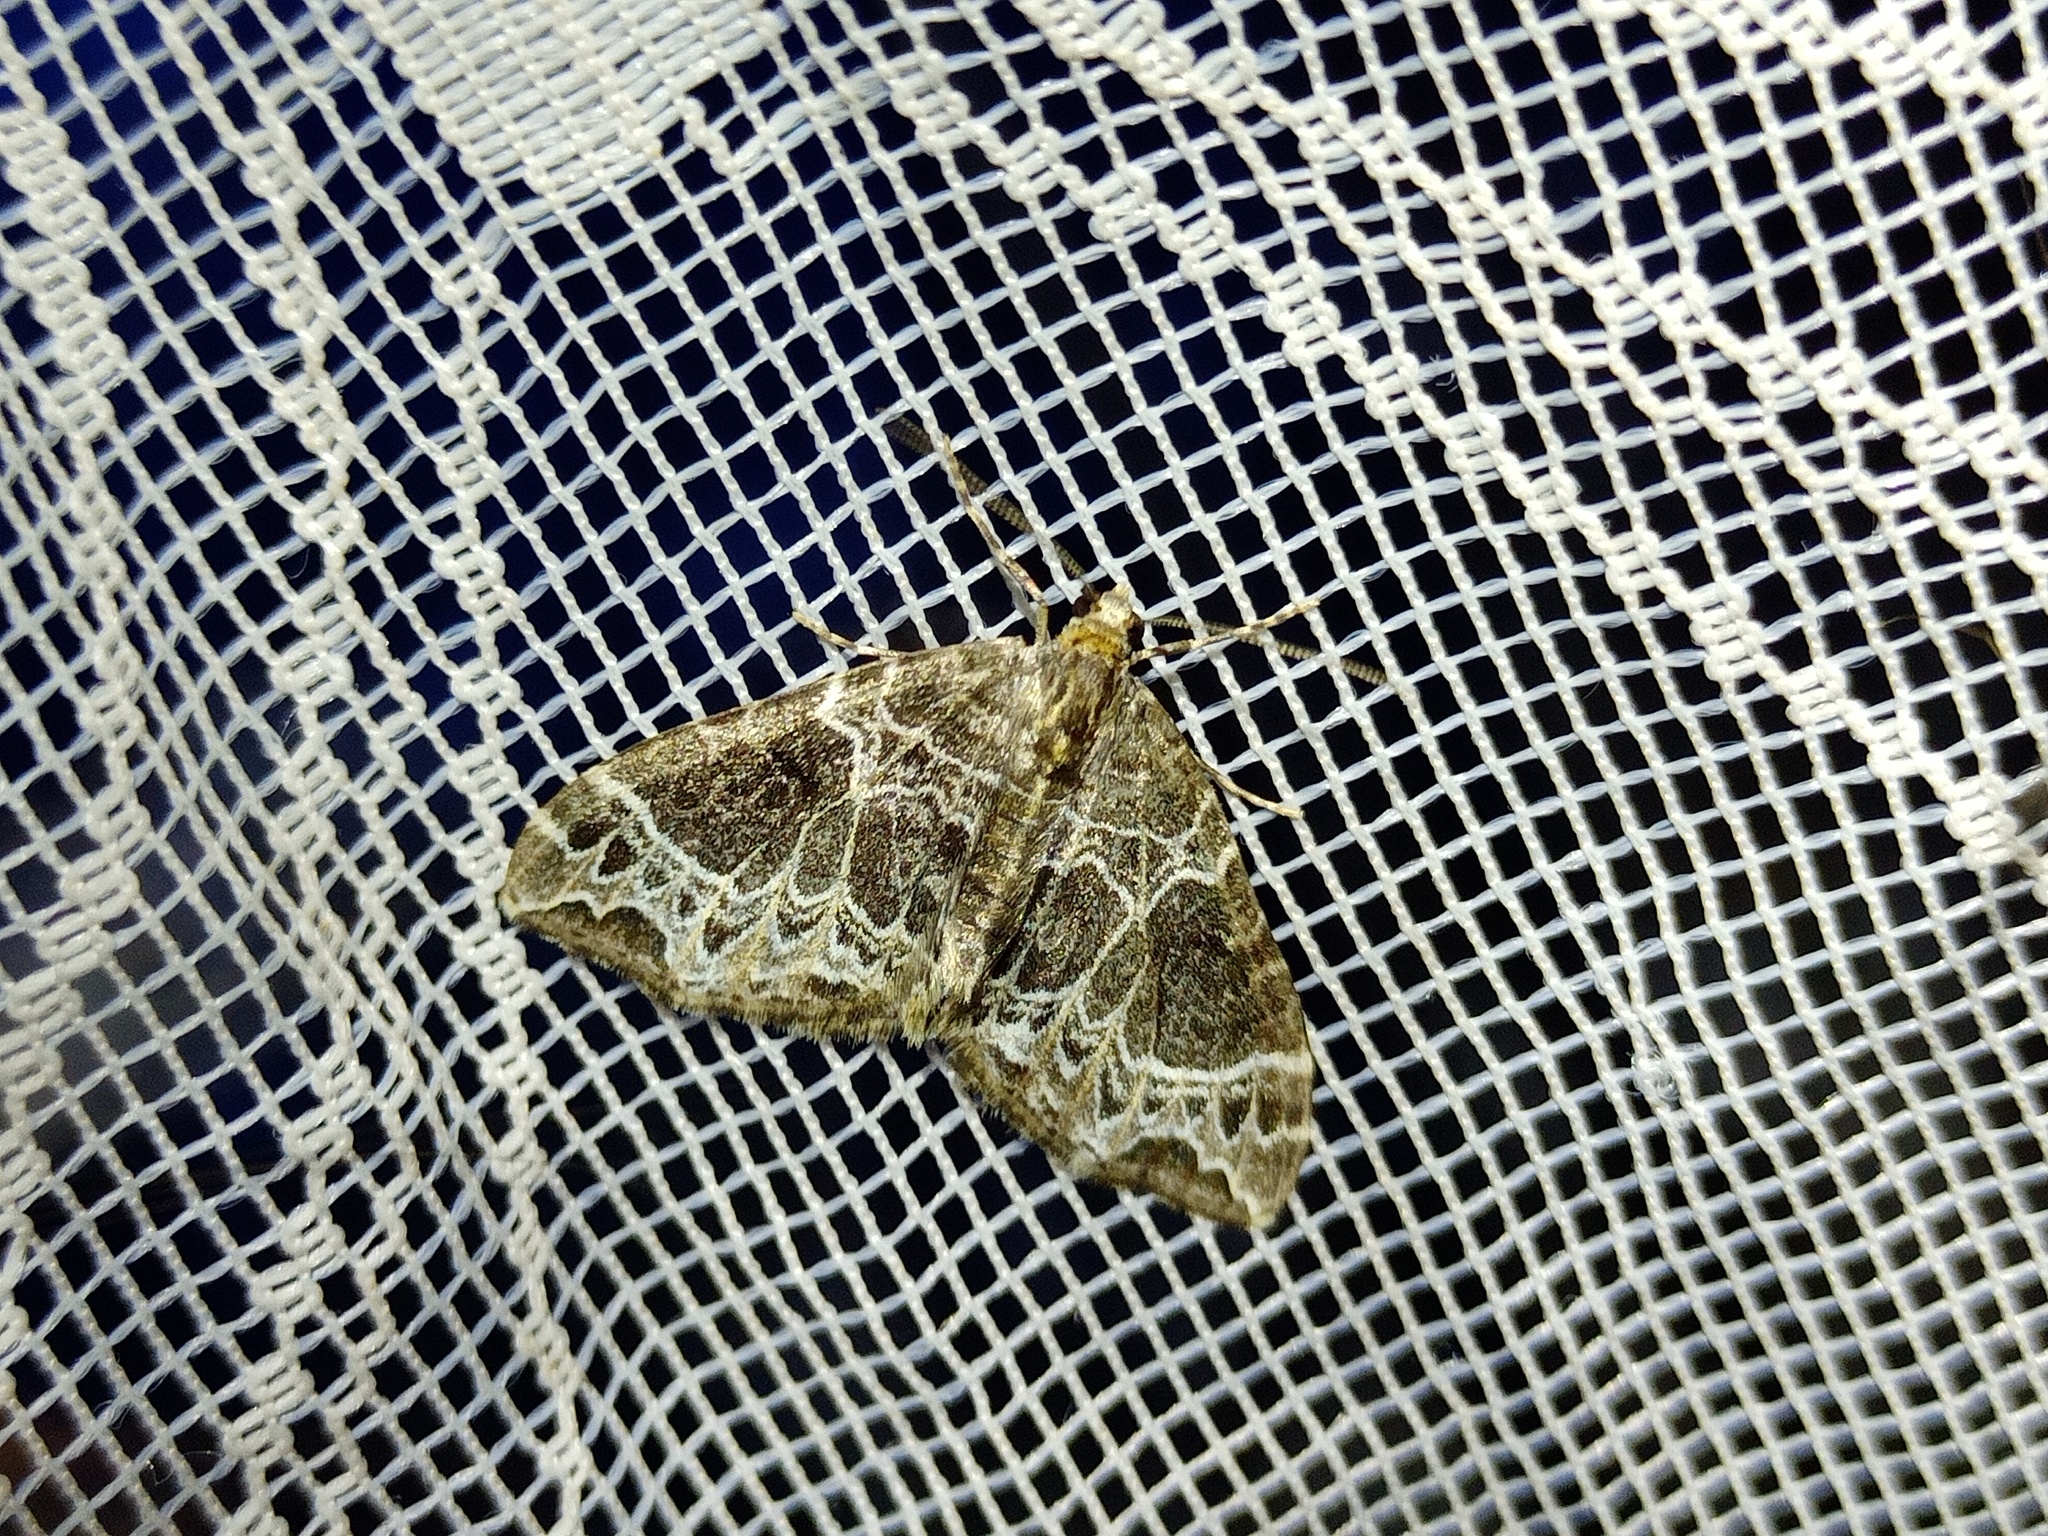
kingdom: Animalia
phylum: Arthropoda
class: Insecta
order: Lepidoptera
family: Geometridae
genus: Ecliptopera
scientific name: Ecliptopera silaceata
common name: Small phoenix
